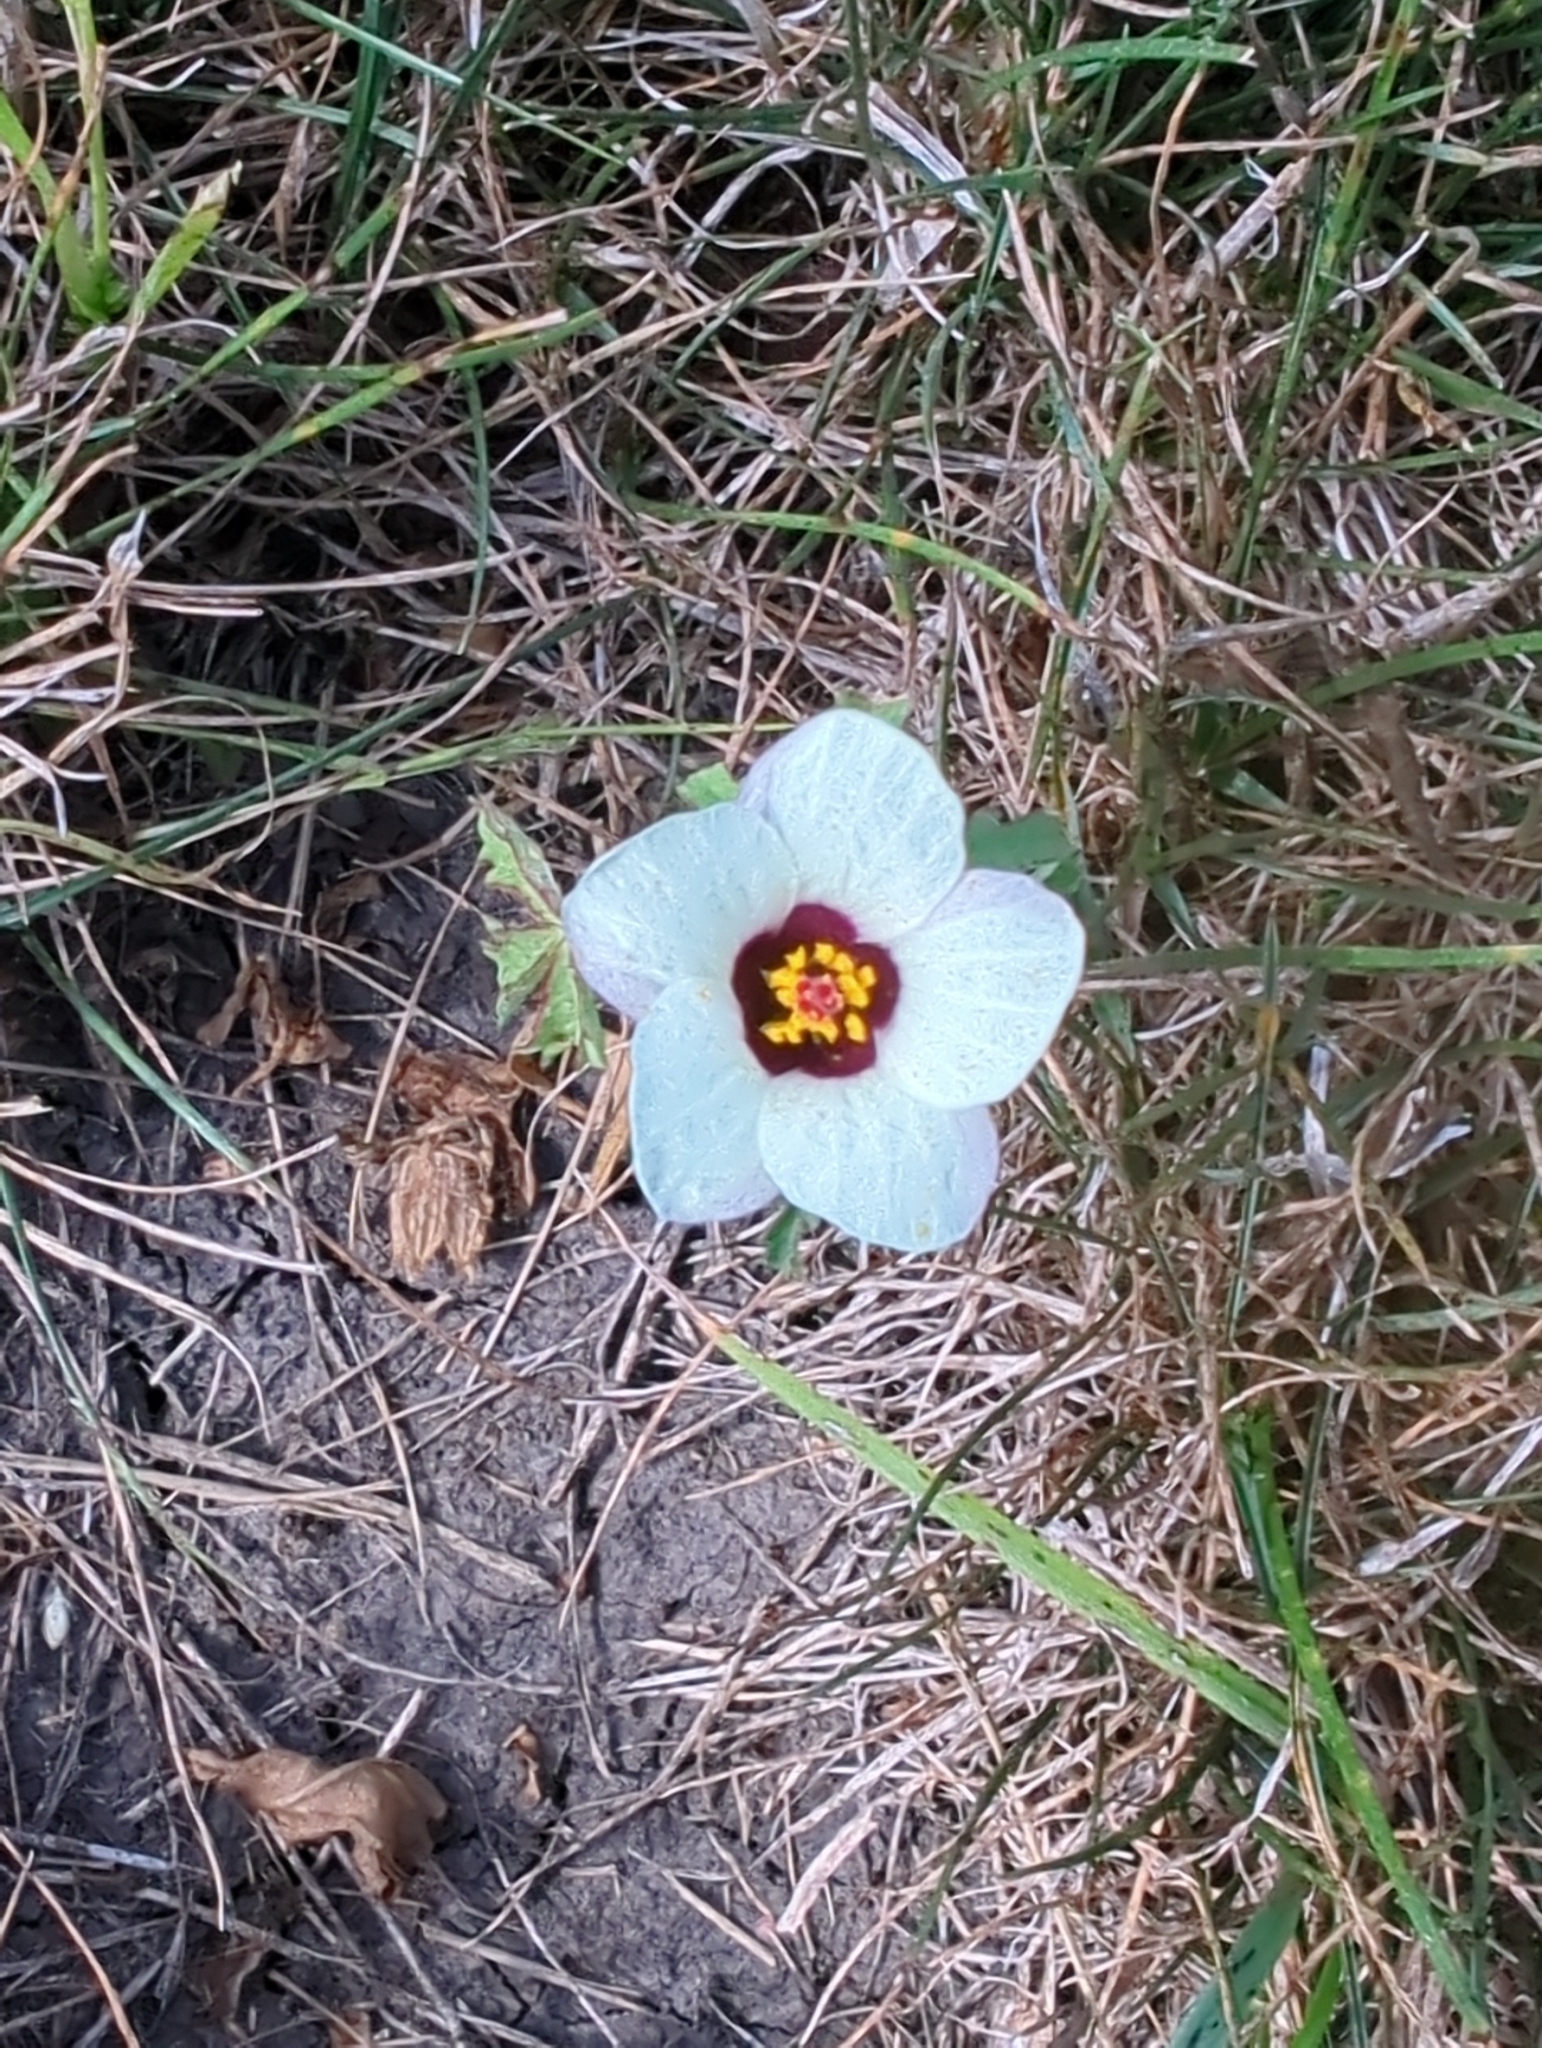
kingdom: Plantae
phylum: Tracheophyta
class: Magnoliopsida
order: Malvales
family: Malvaceae
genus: Hibiscus
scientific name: Hibiscus trionum
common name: Bladder ketmia
